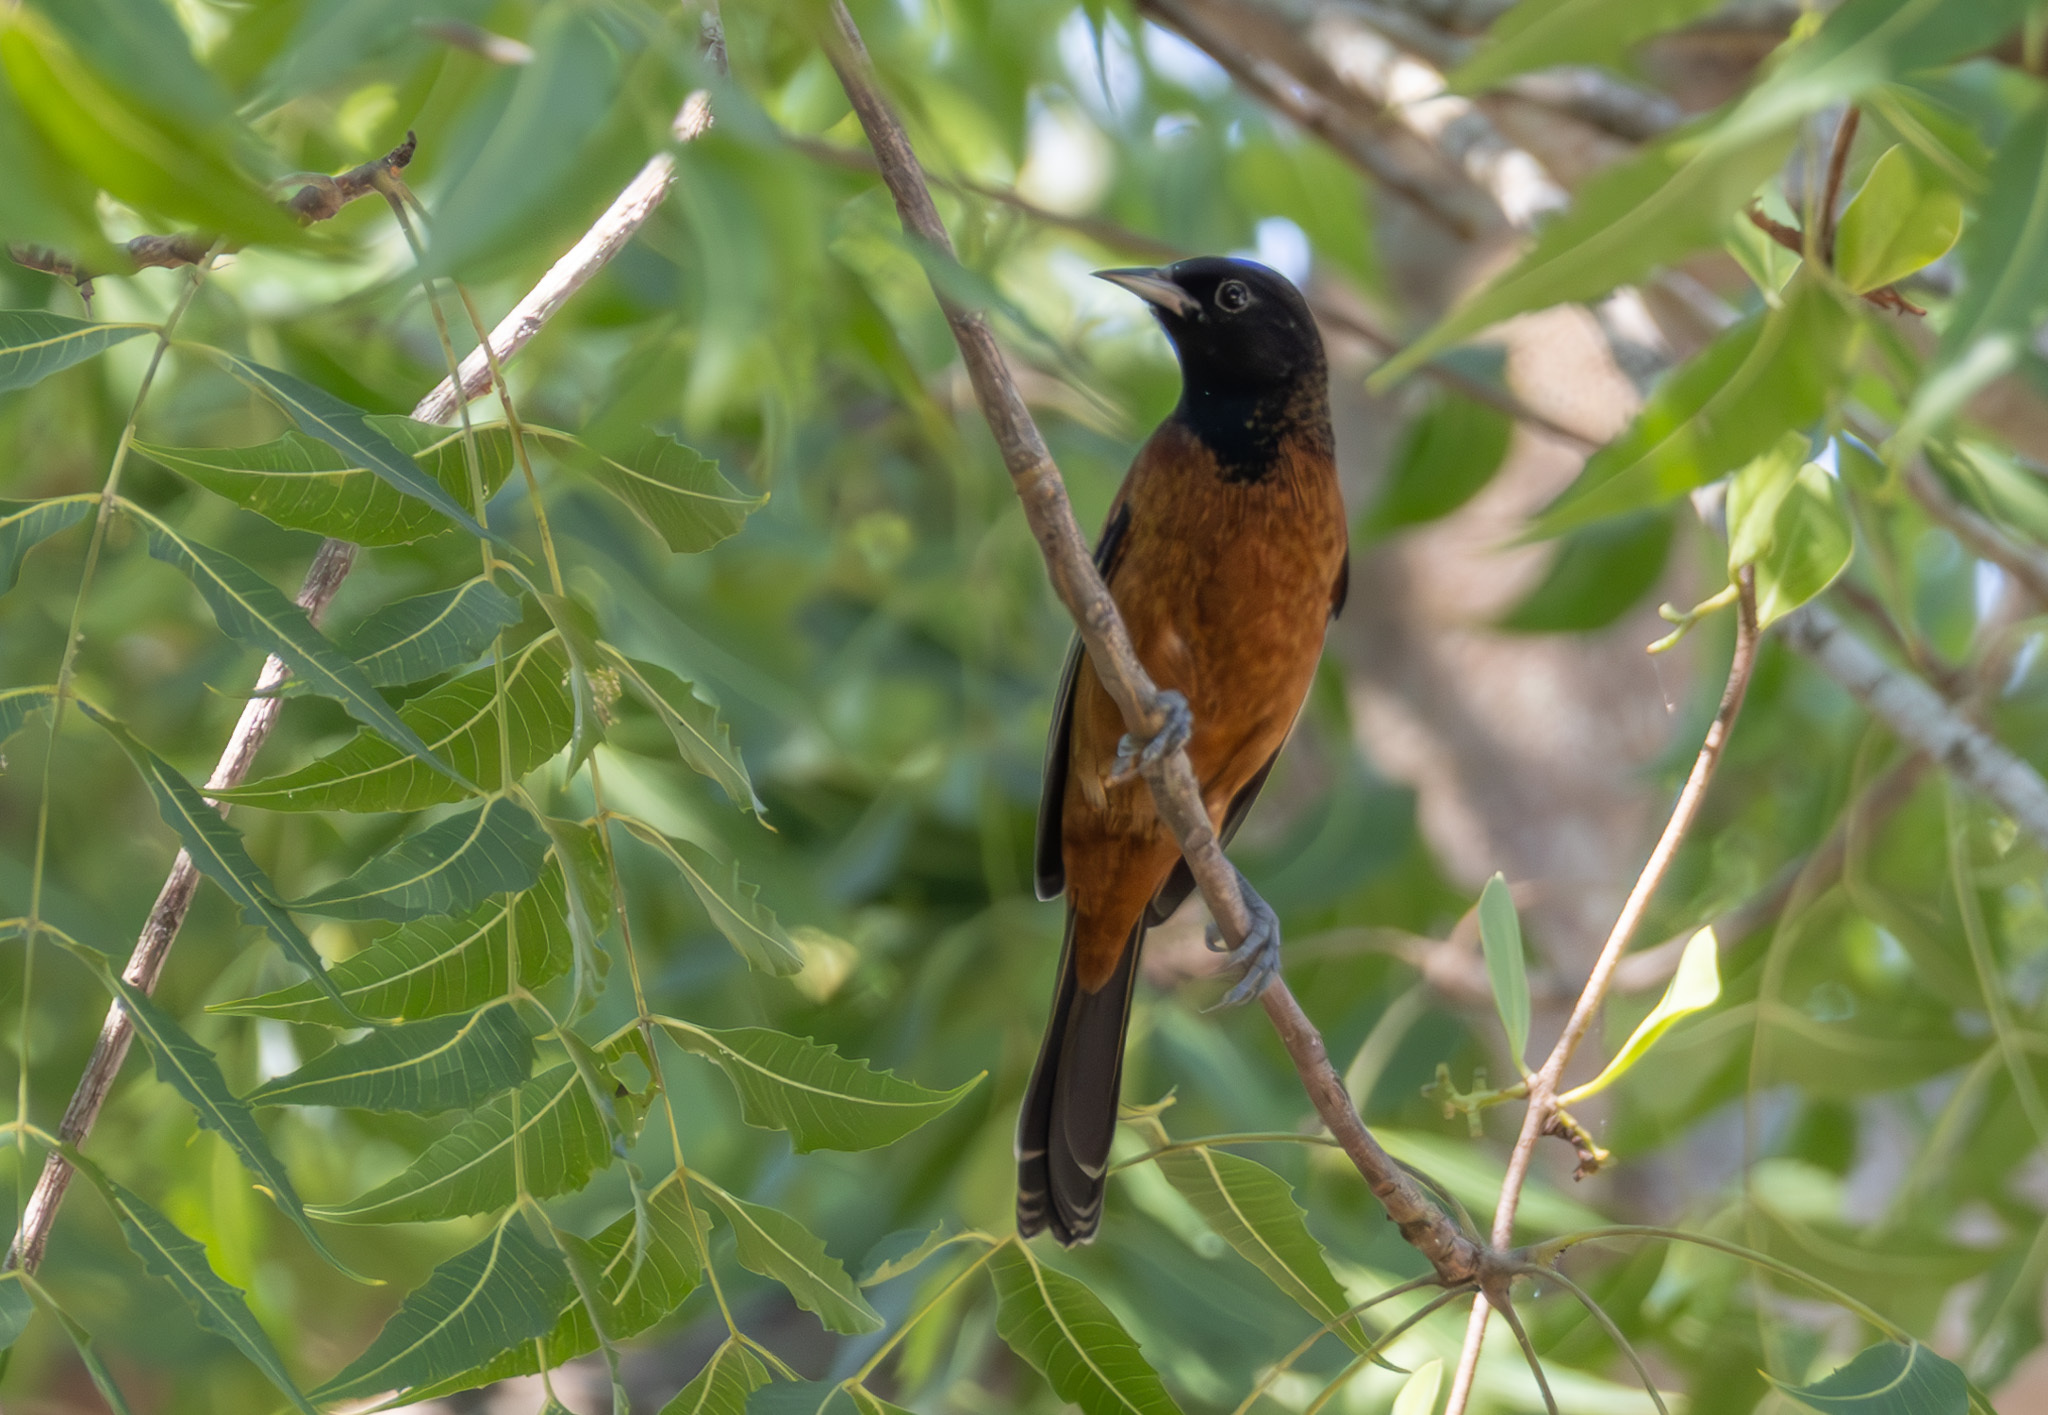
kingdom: Animalia
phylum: Chordata
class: Aves
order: Passeriformes
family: Icteridae
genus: Icterus
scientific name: Icterus spurius
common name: Orchard oriole
